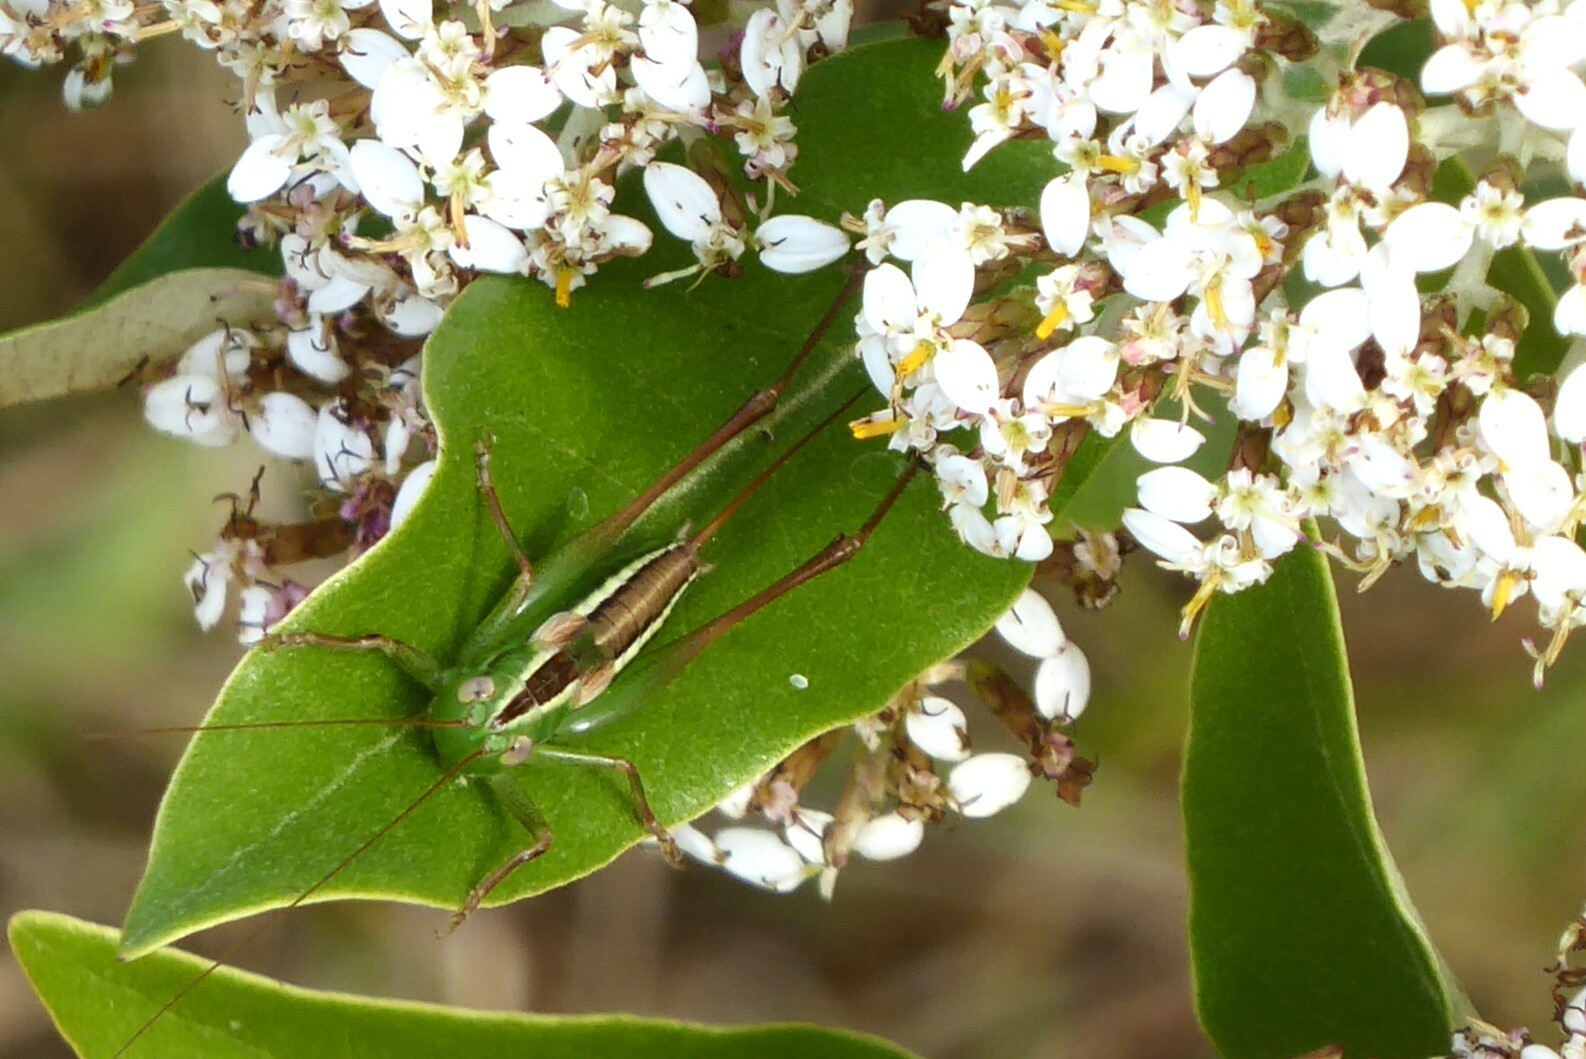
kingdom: Animalia
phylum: Arthropoda
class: Insecta
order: Orthoptera
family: Tettigoniidae
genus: Conocephalus
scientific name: Conocephalus bilineatus
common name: Small meadow katydid
